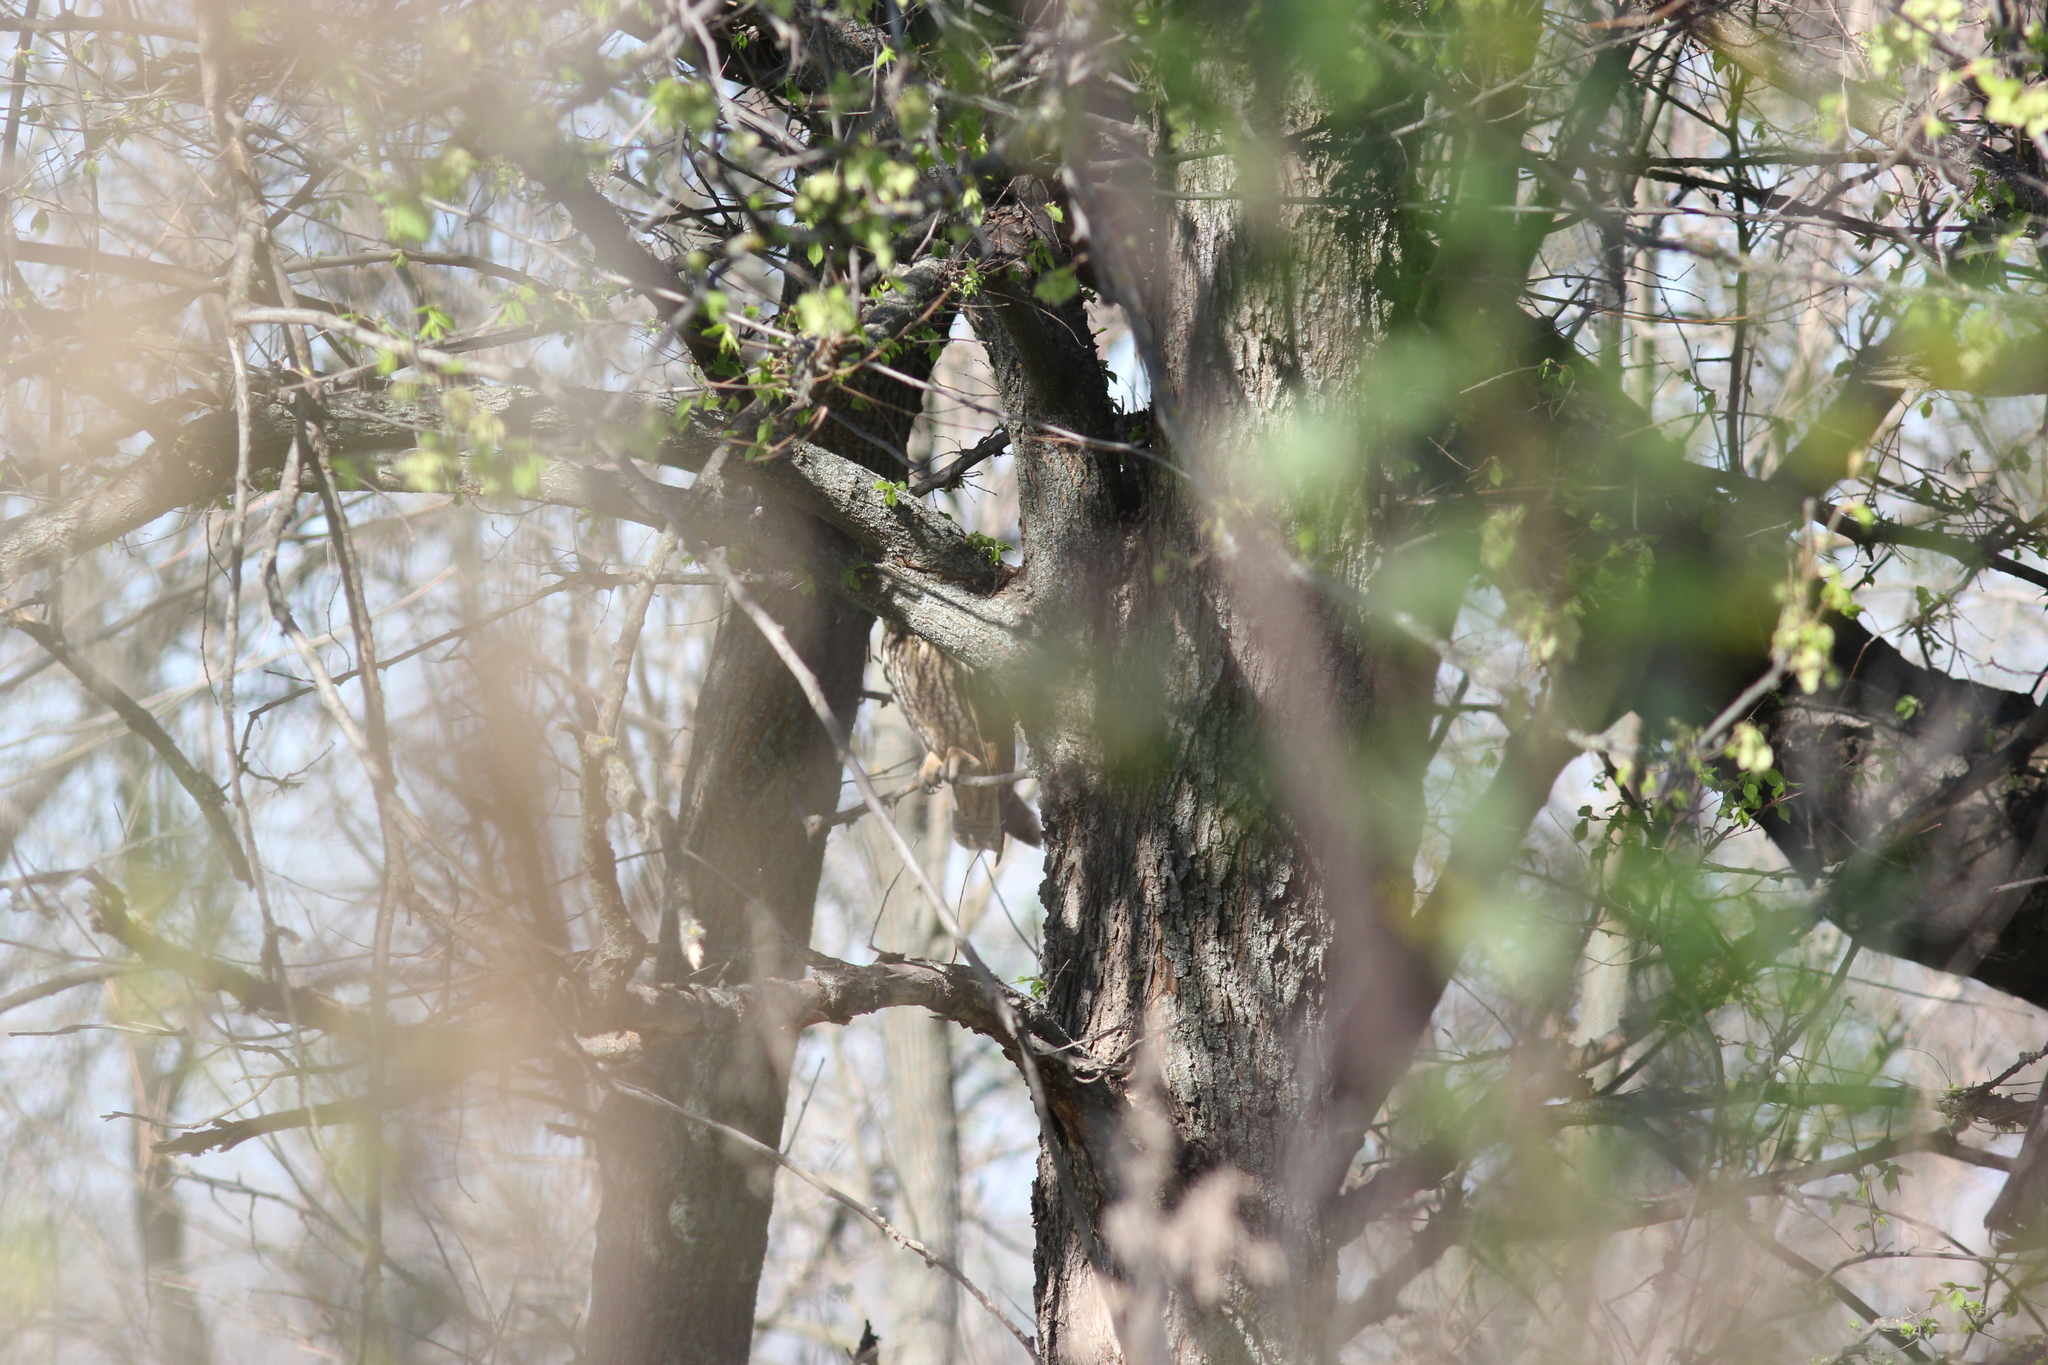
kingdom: Animalia
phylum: Chordata
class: Aves
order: Strigiformes
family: Strigidae
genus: Asio
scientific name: Asio otus
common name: Long-eared owl
